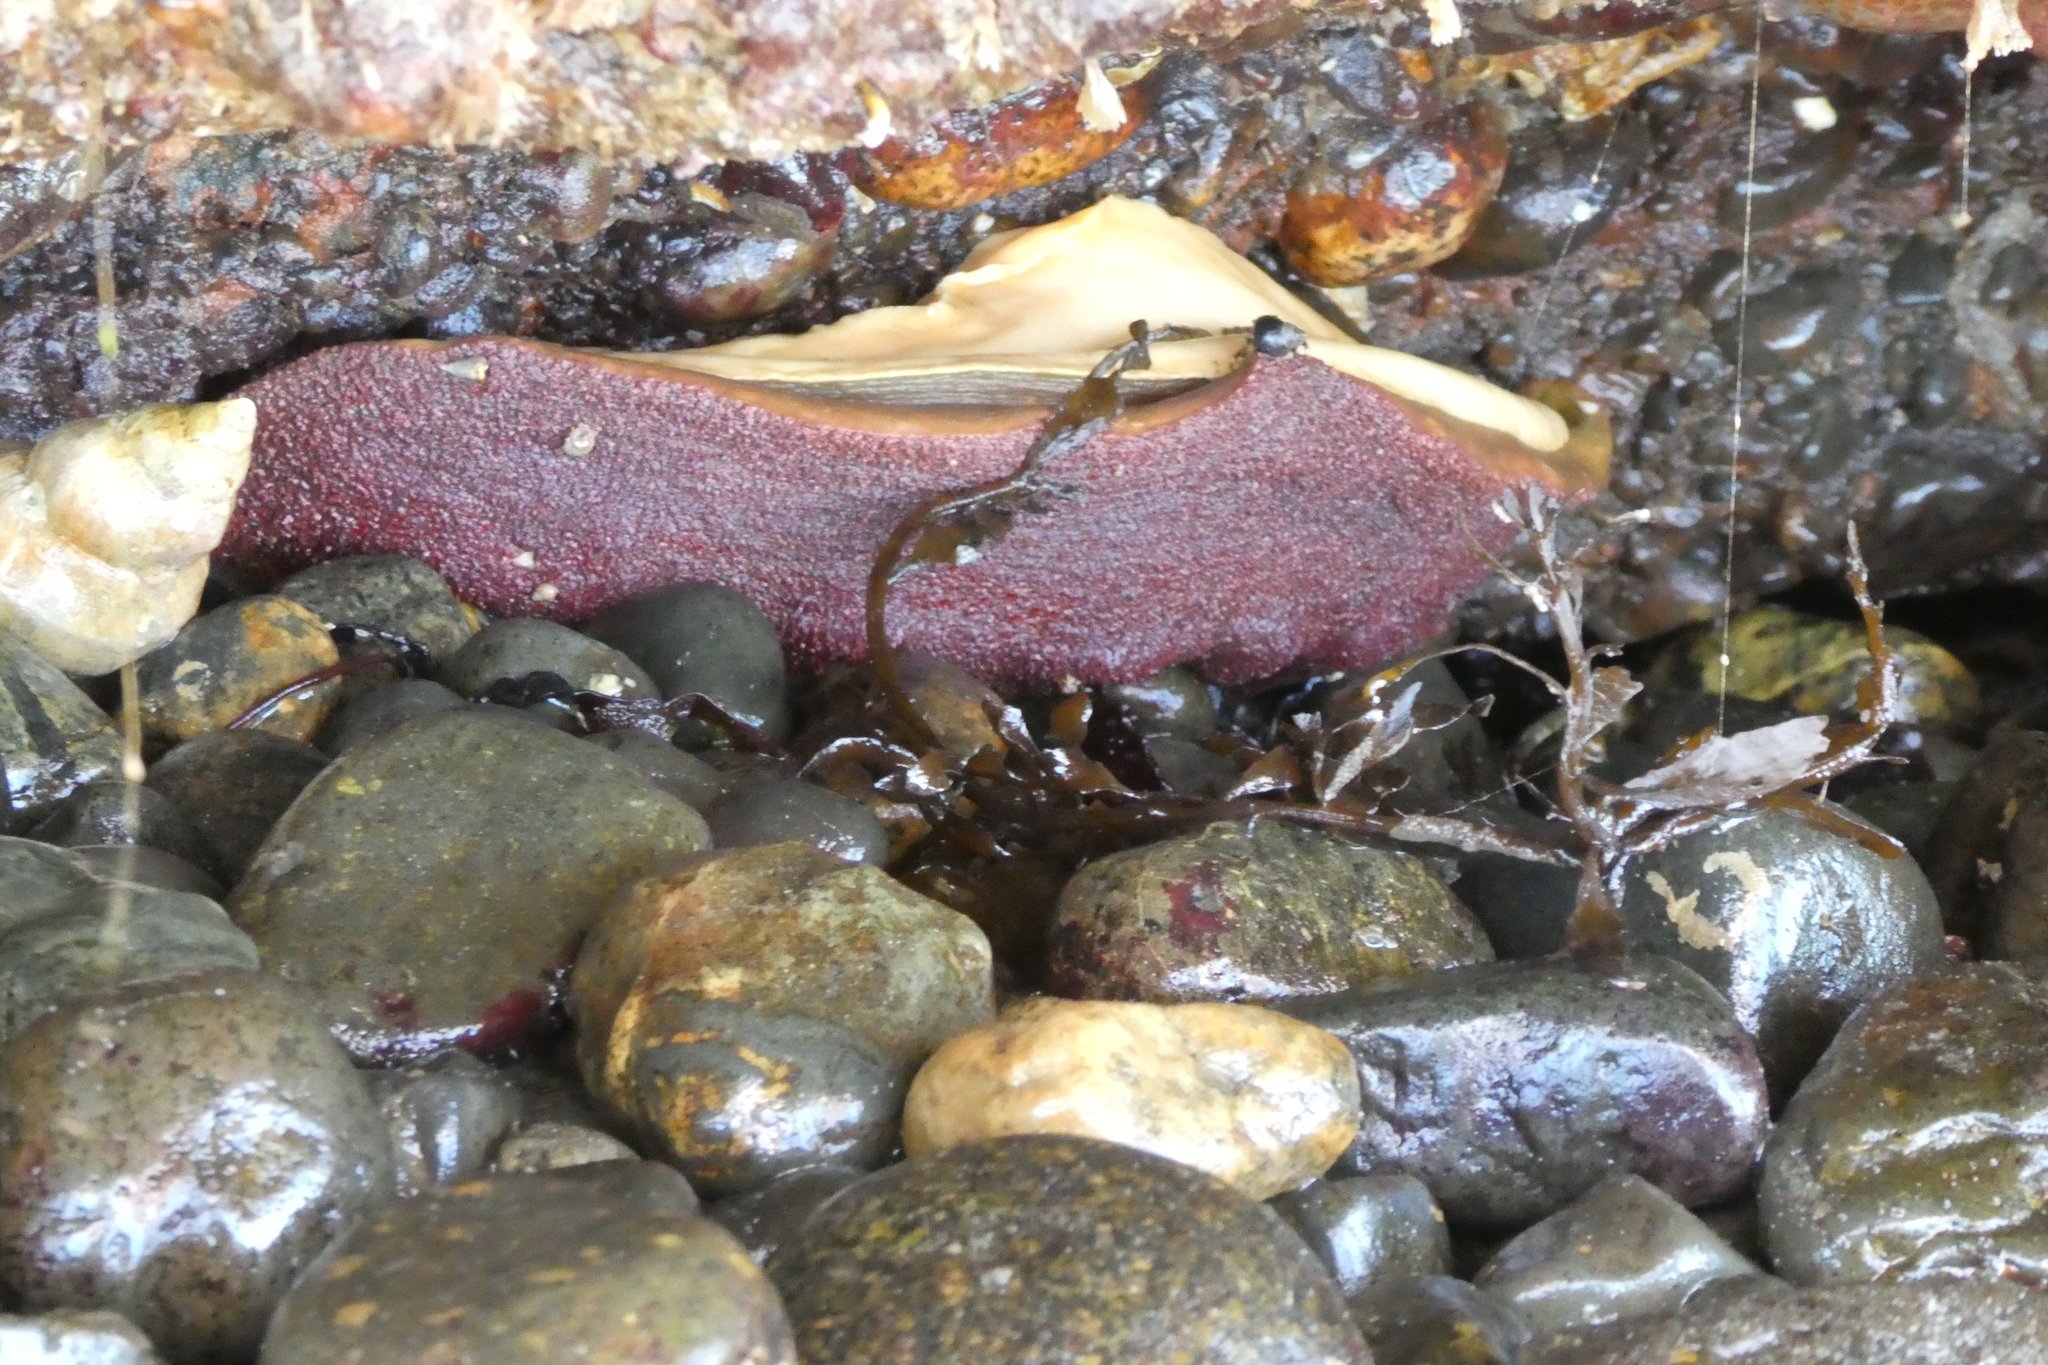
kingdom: Animalia
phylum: Mollusca
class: Polyplacophora
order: Chitonida
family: Acanthochitonidae
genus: Cryptochiton
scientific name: Cryptochiton stelleri
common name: Giant pacific chiton
